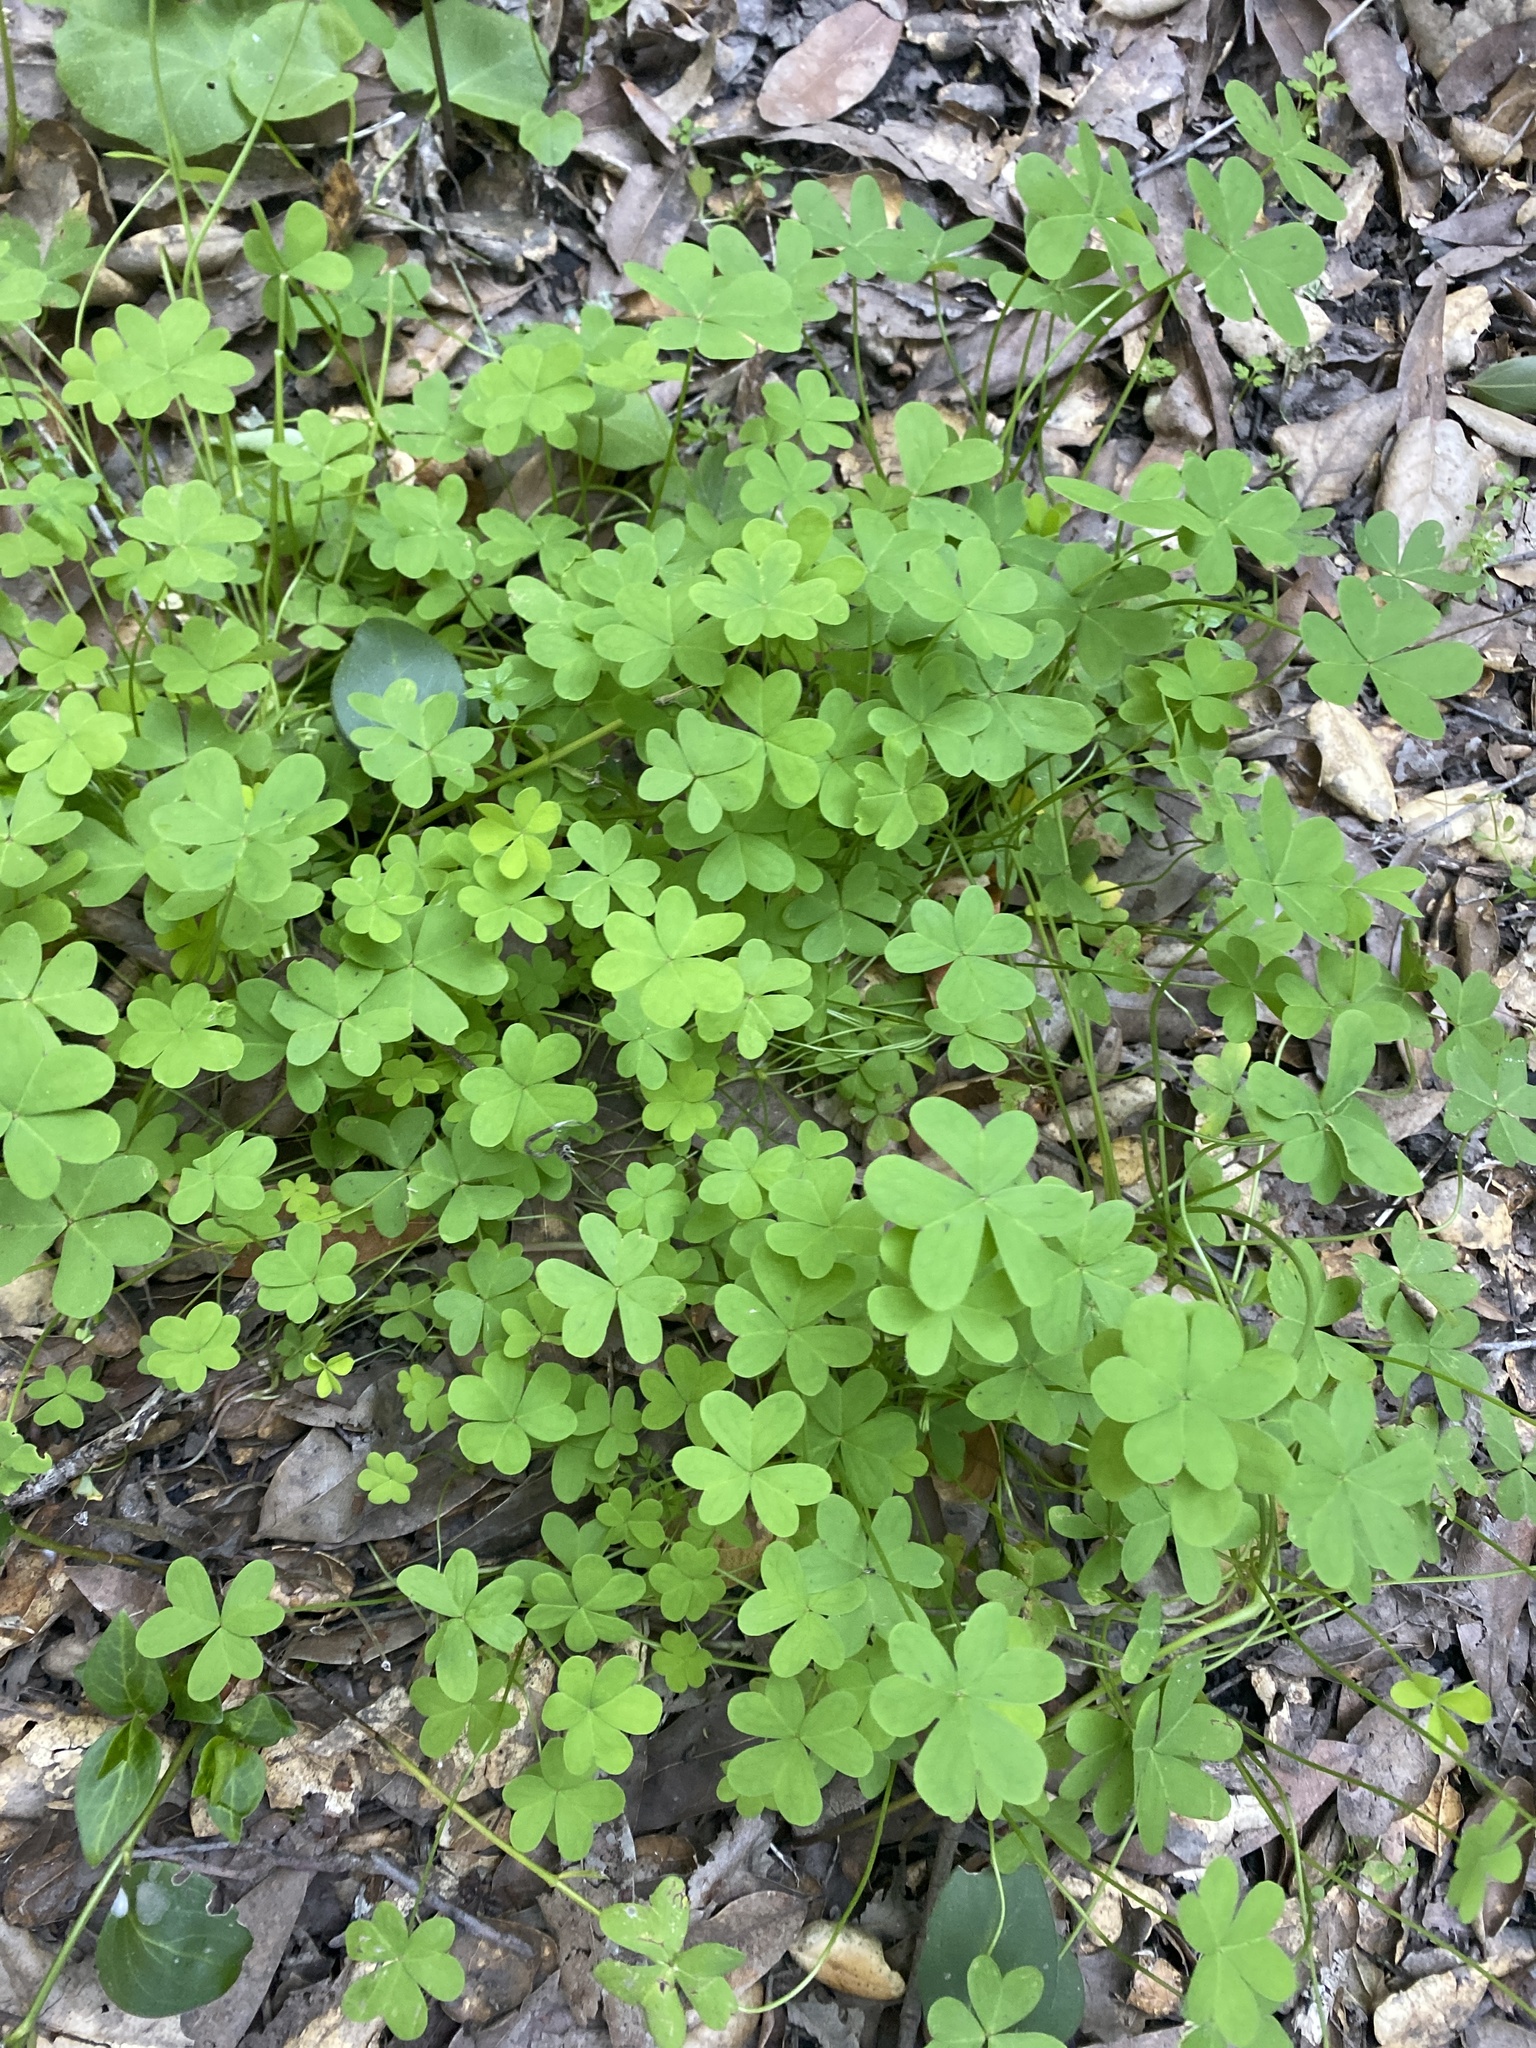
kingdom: Plantae
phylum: Tracheophyta
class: Magnoliopsida
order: Oxalidales
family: Oxalidaceae
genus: Oxalis
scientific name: Oxalis pes-caprae
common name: Bermuda-buttercup
